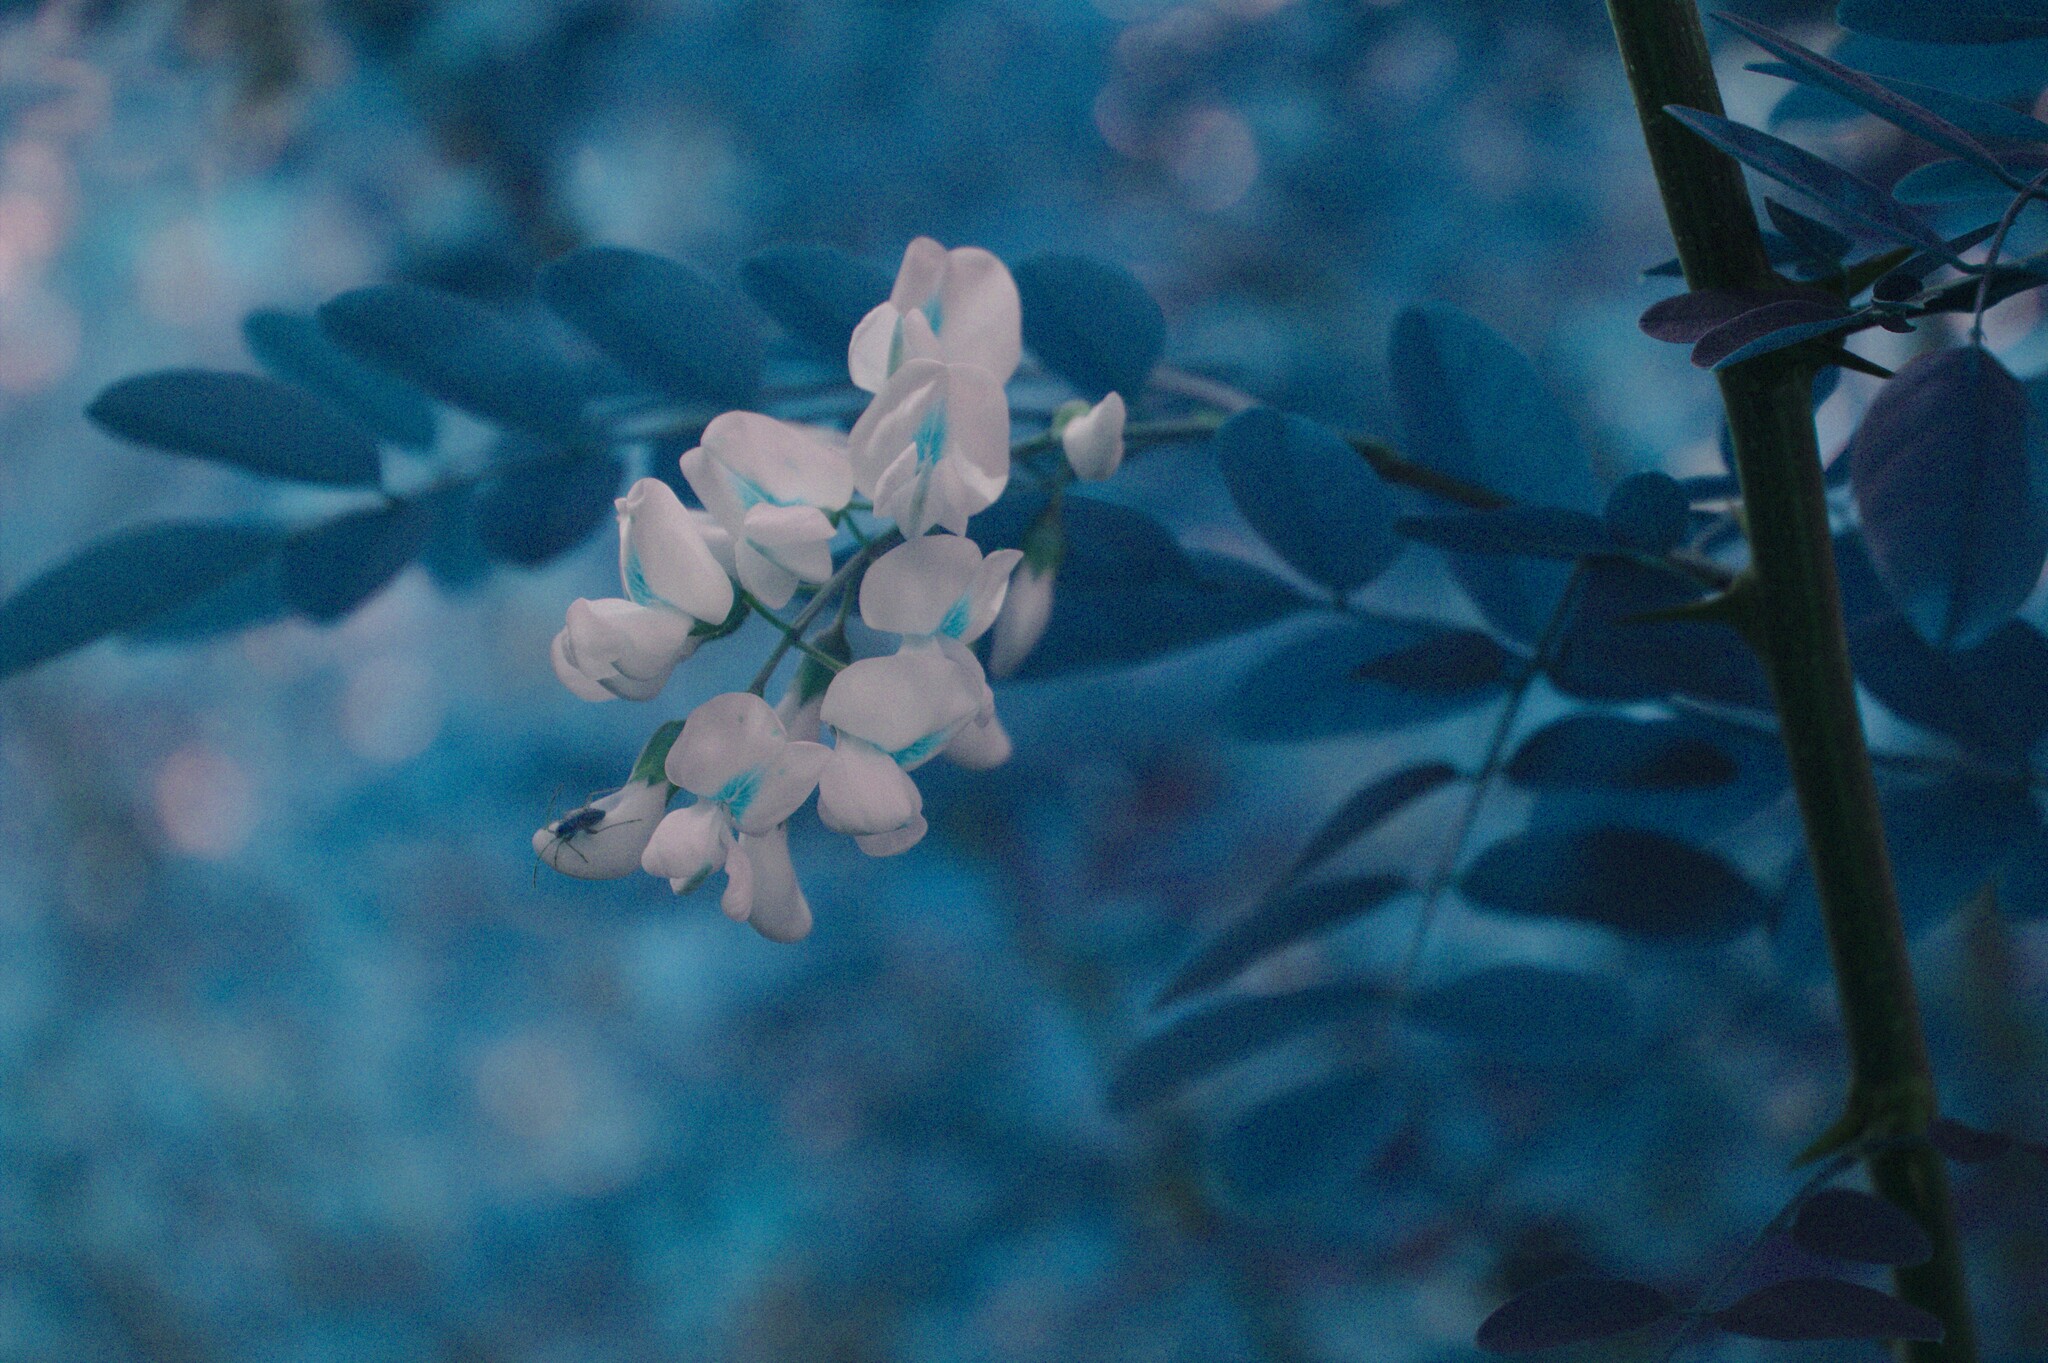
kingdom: Plantae
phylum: Tracheophyta
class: Magnoliopsida
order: Fabales
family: Fabaceae
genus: Robinia
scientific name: Robinia pseudoacacia
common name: Black locust
